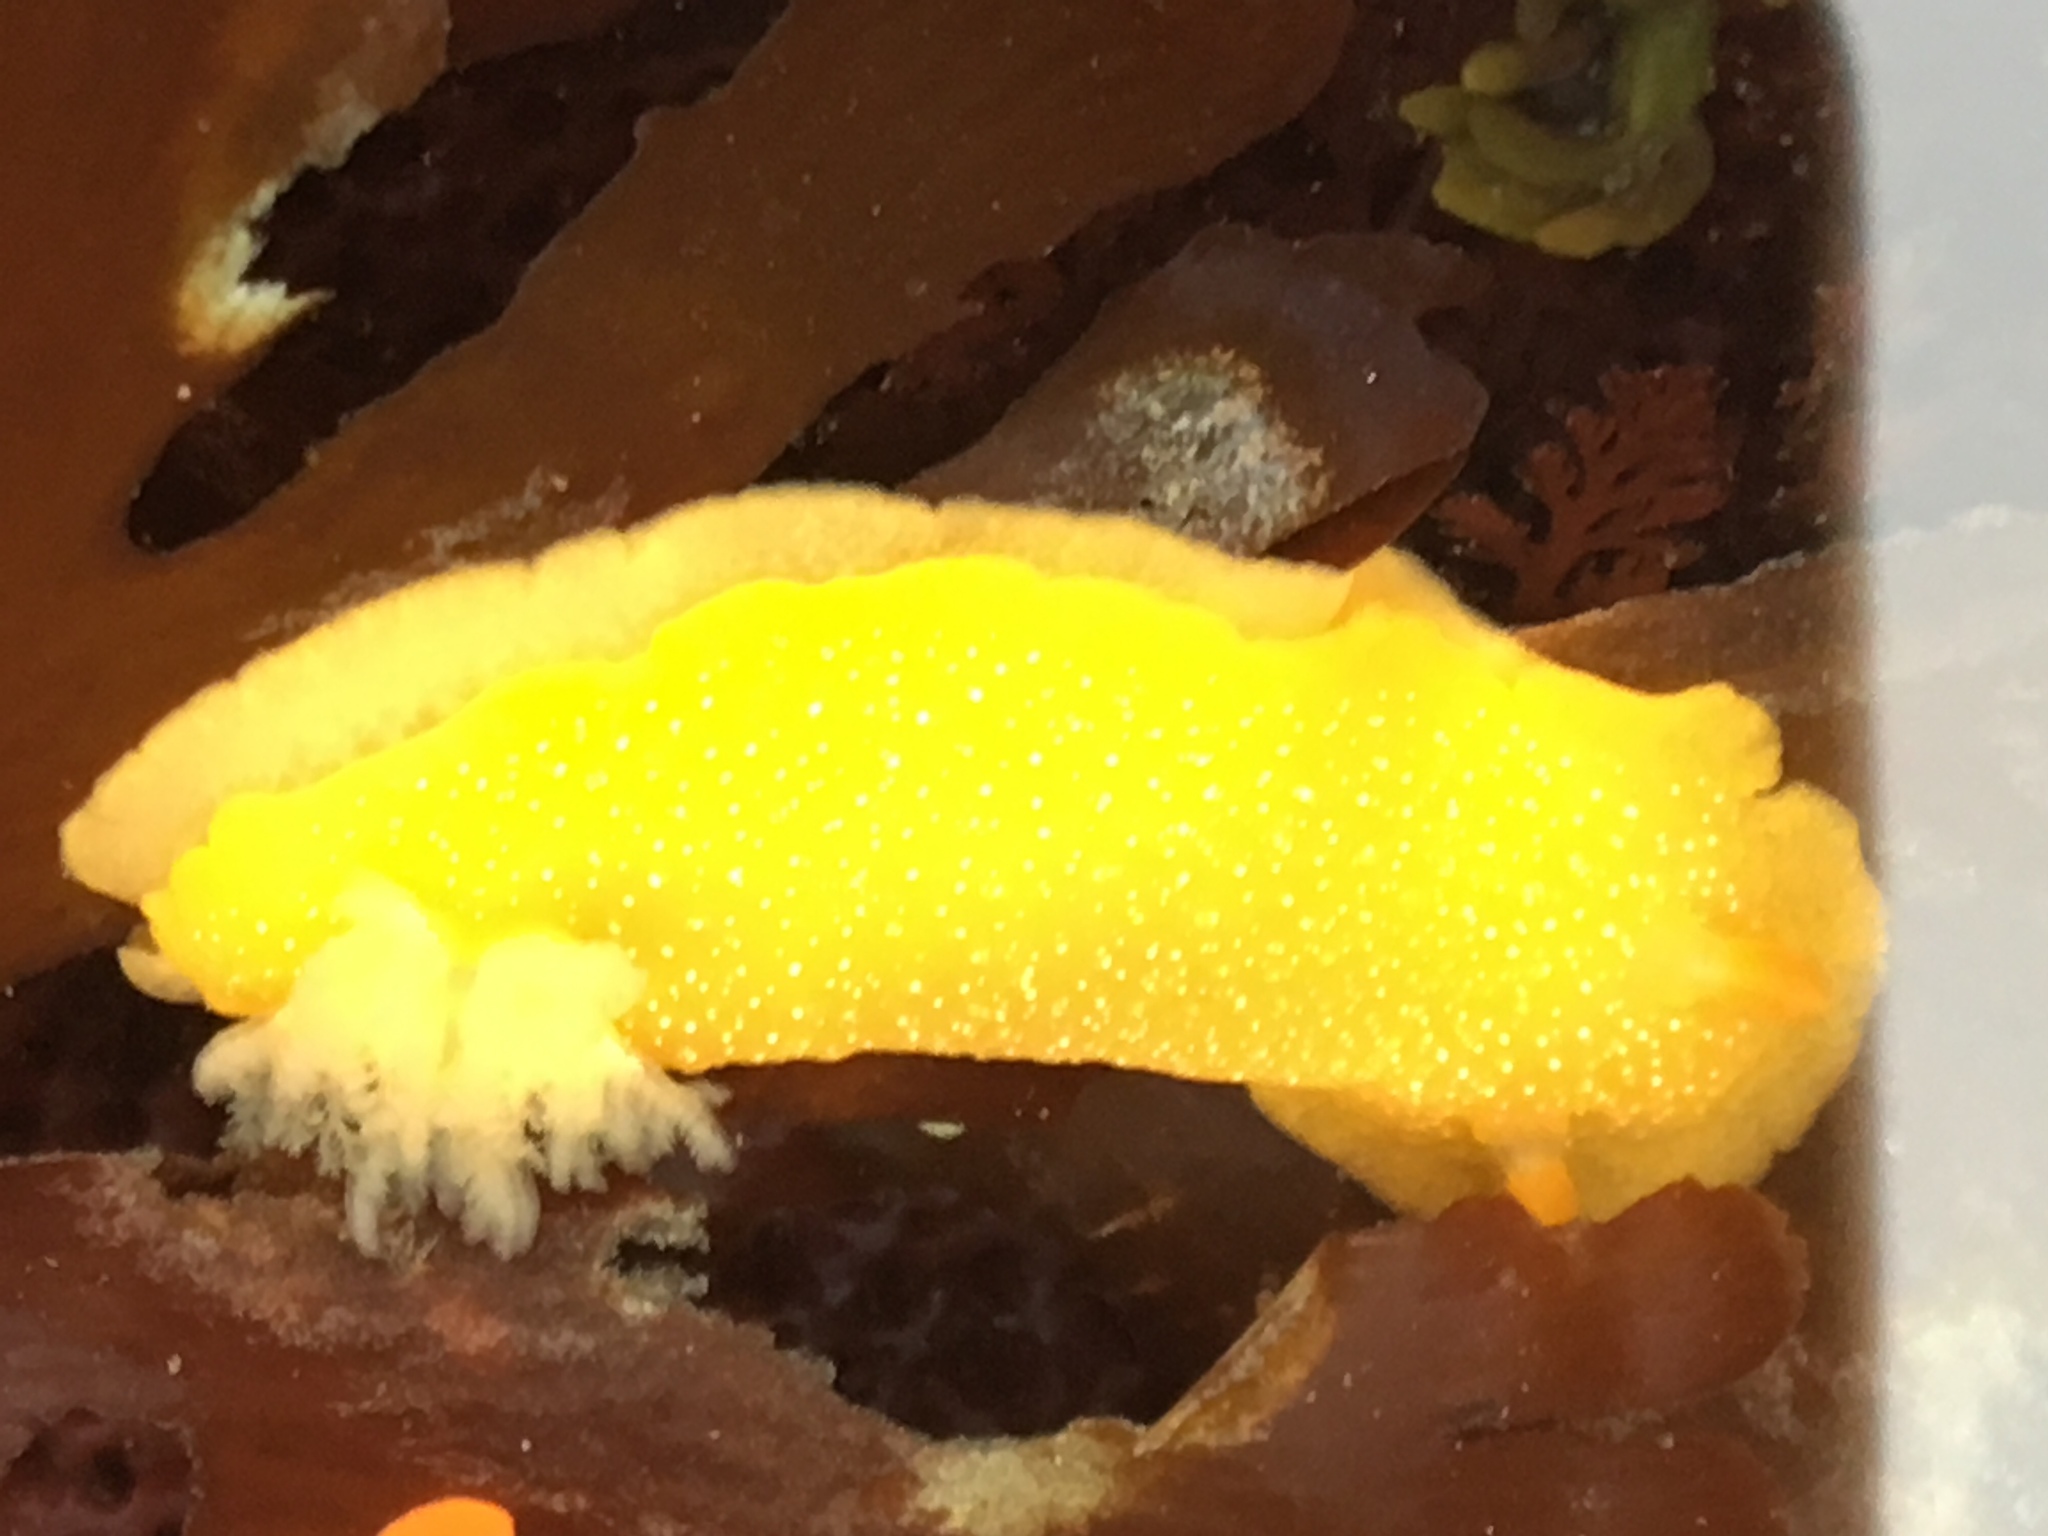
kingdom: Animalia
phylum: Mollusca
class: Gastropoda
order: Nudibranchia
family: Dendrodorididae
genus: Doriopsilla
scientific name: Doriopsilla albopunctata
